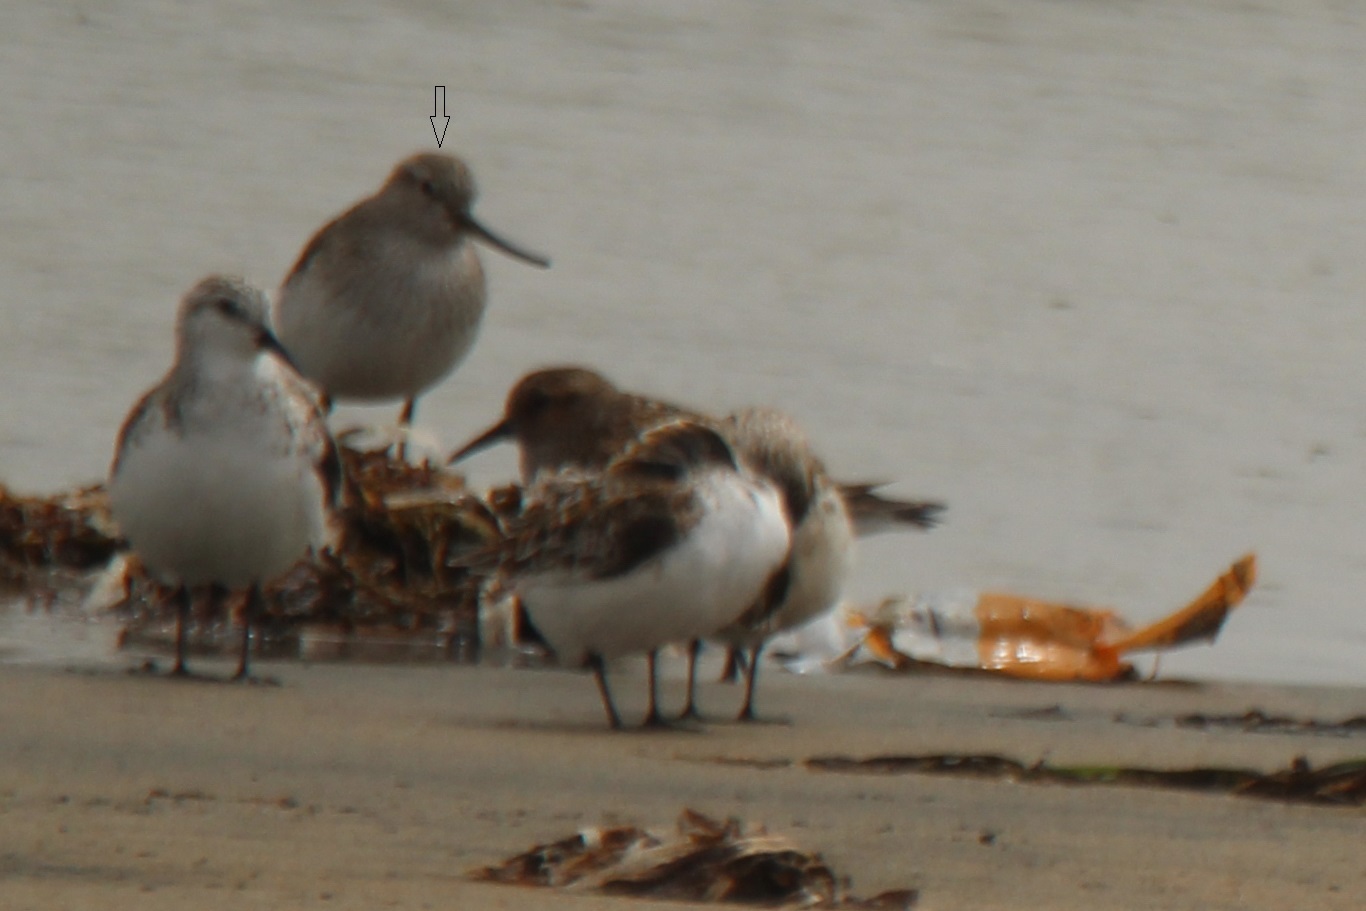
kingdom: Animalia
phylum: Chordata
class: Aves
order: Charadriiformes
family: Scolopacidae
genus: Xenus
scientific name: Xenus cinereus
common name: Terek sandpiper
